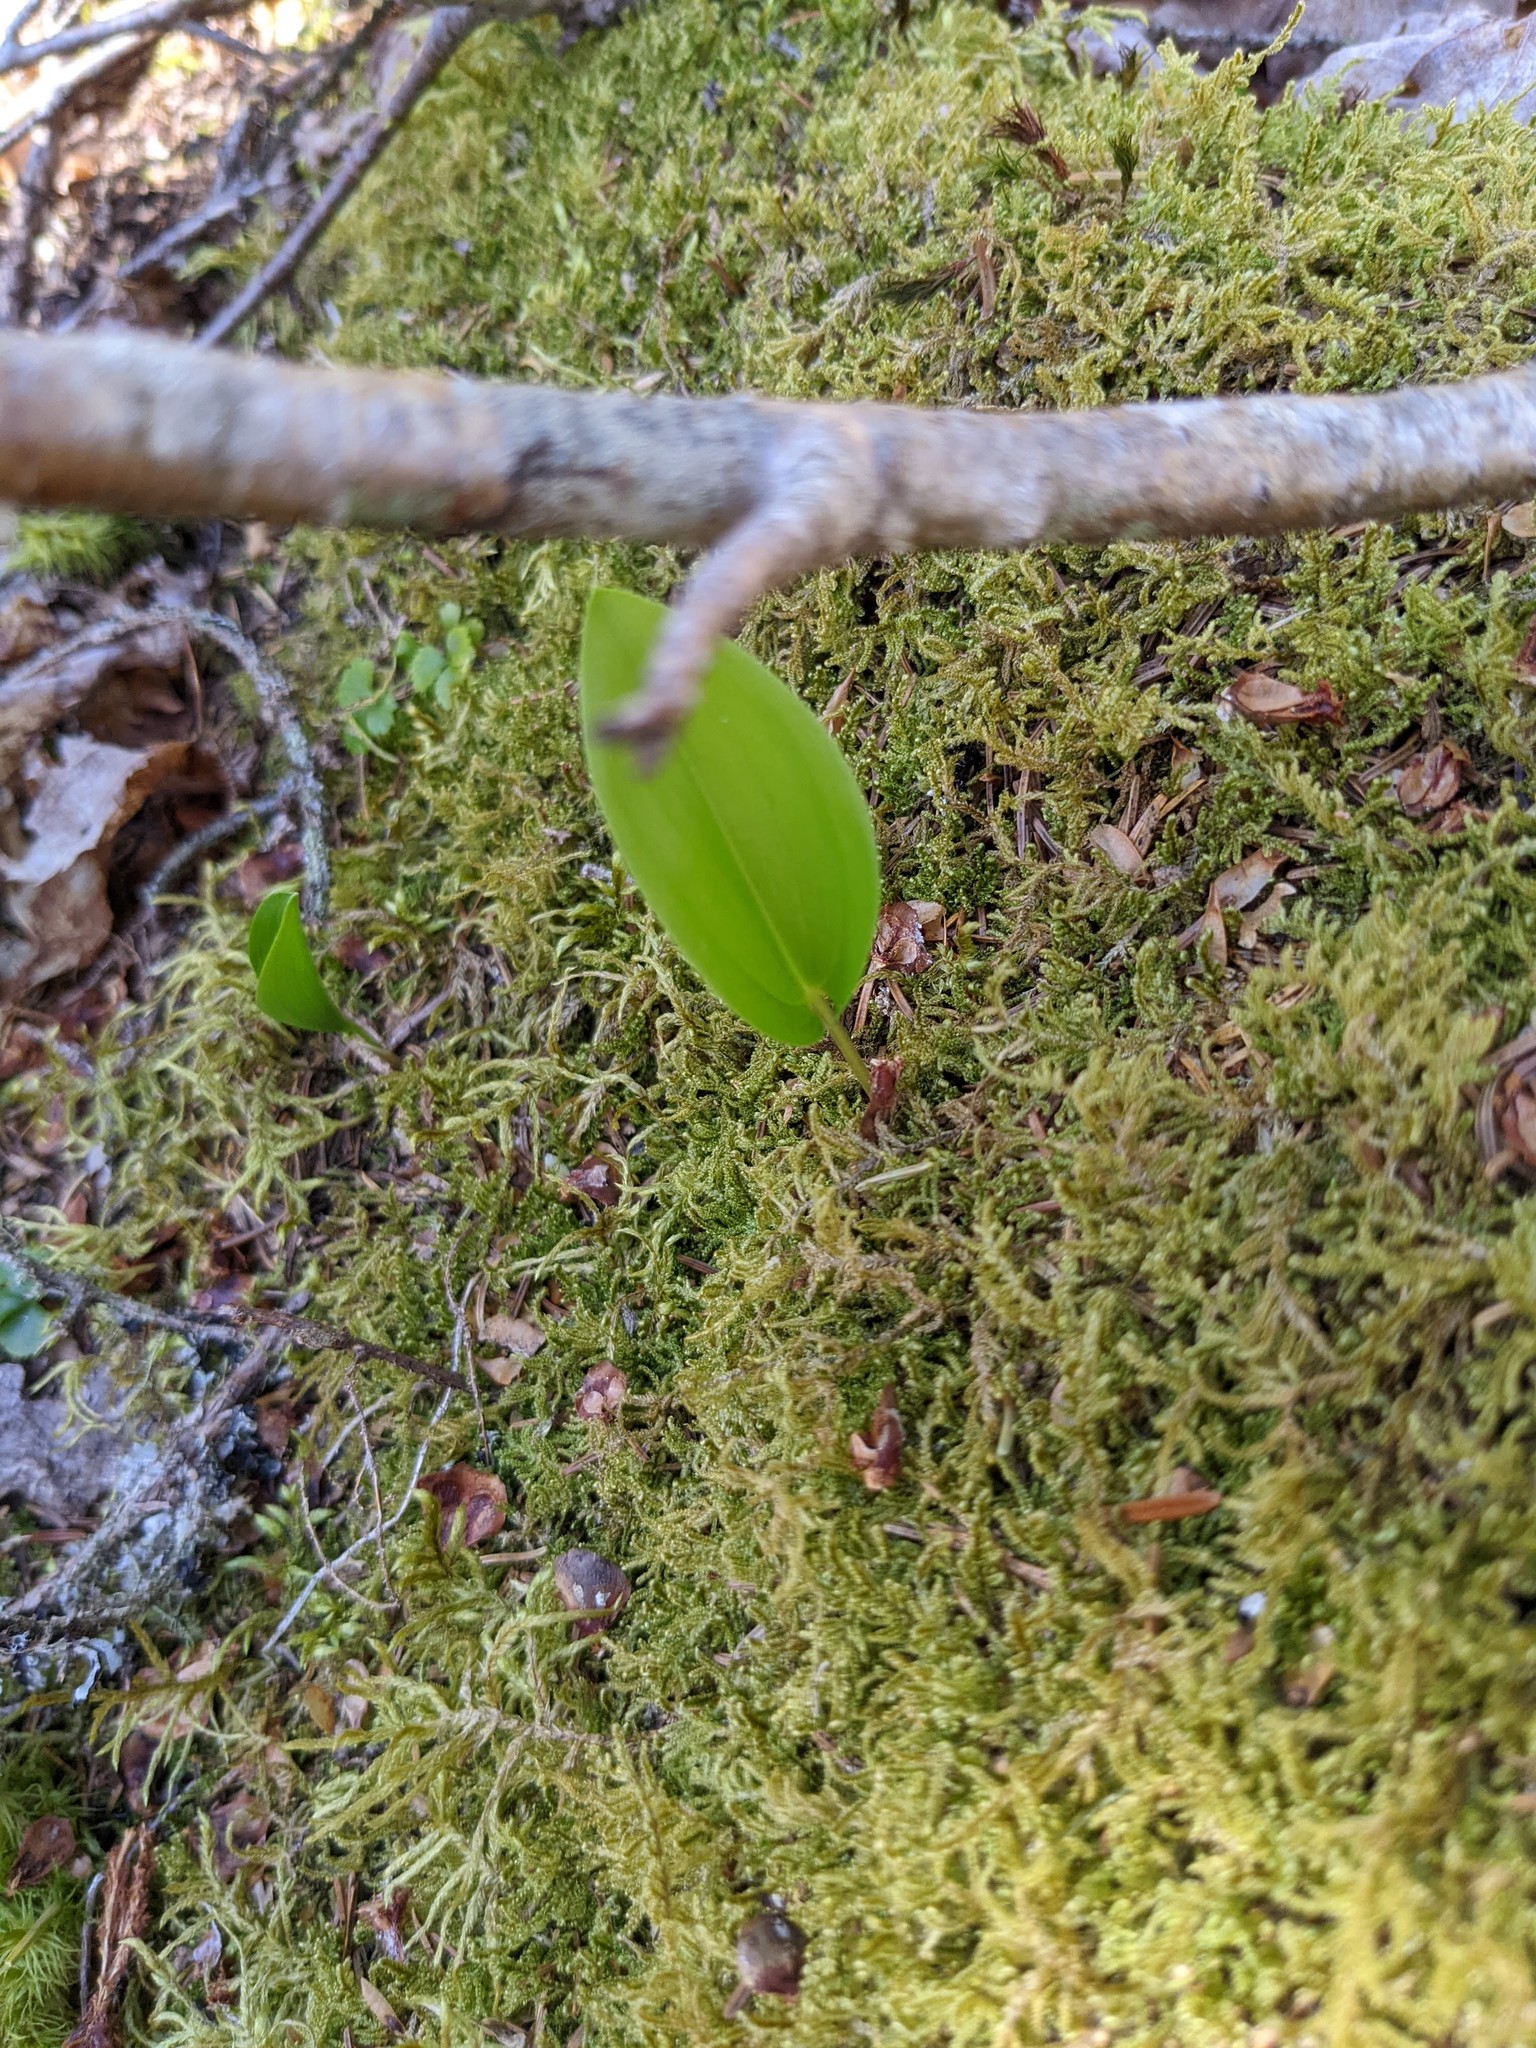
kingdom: Plantae
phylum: Tracheophyta
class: Liliopsida
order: Asparagales
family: Asparagaceae
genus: Maianthemum
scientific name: Maianthemum canadense
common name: False lily-of-the-valley
